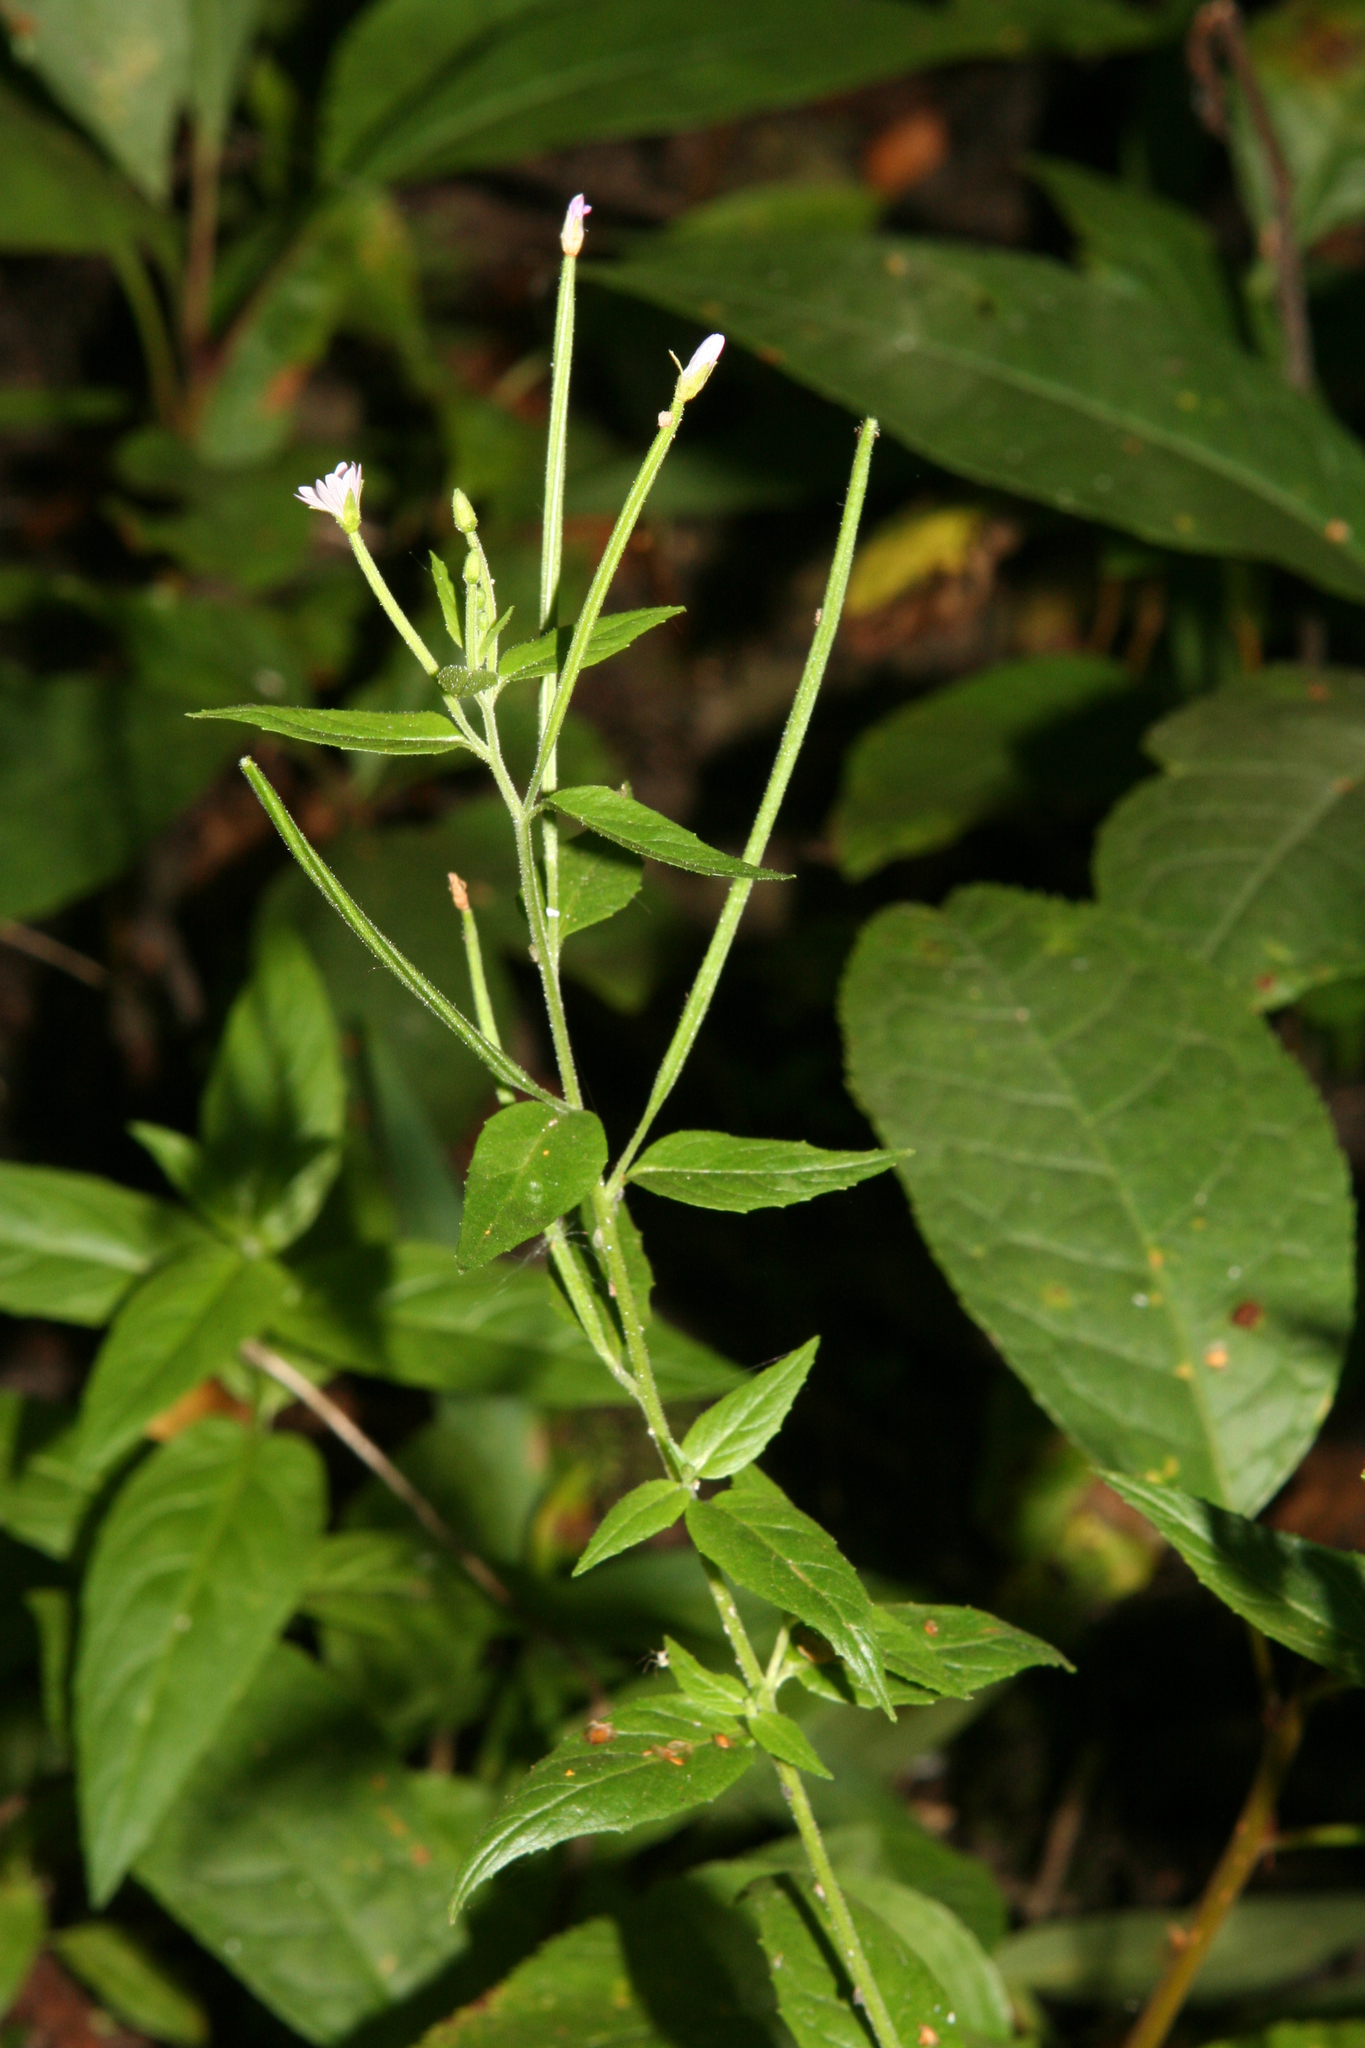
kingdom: Plantae
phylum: Tracheophyta
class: Magnoliopsida
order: Myrtales
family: Onagraceae
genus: Epilobium
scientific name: Epilobium ciliatum
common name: American willowherb
